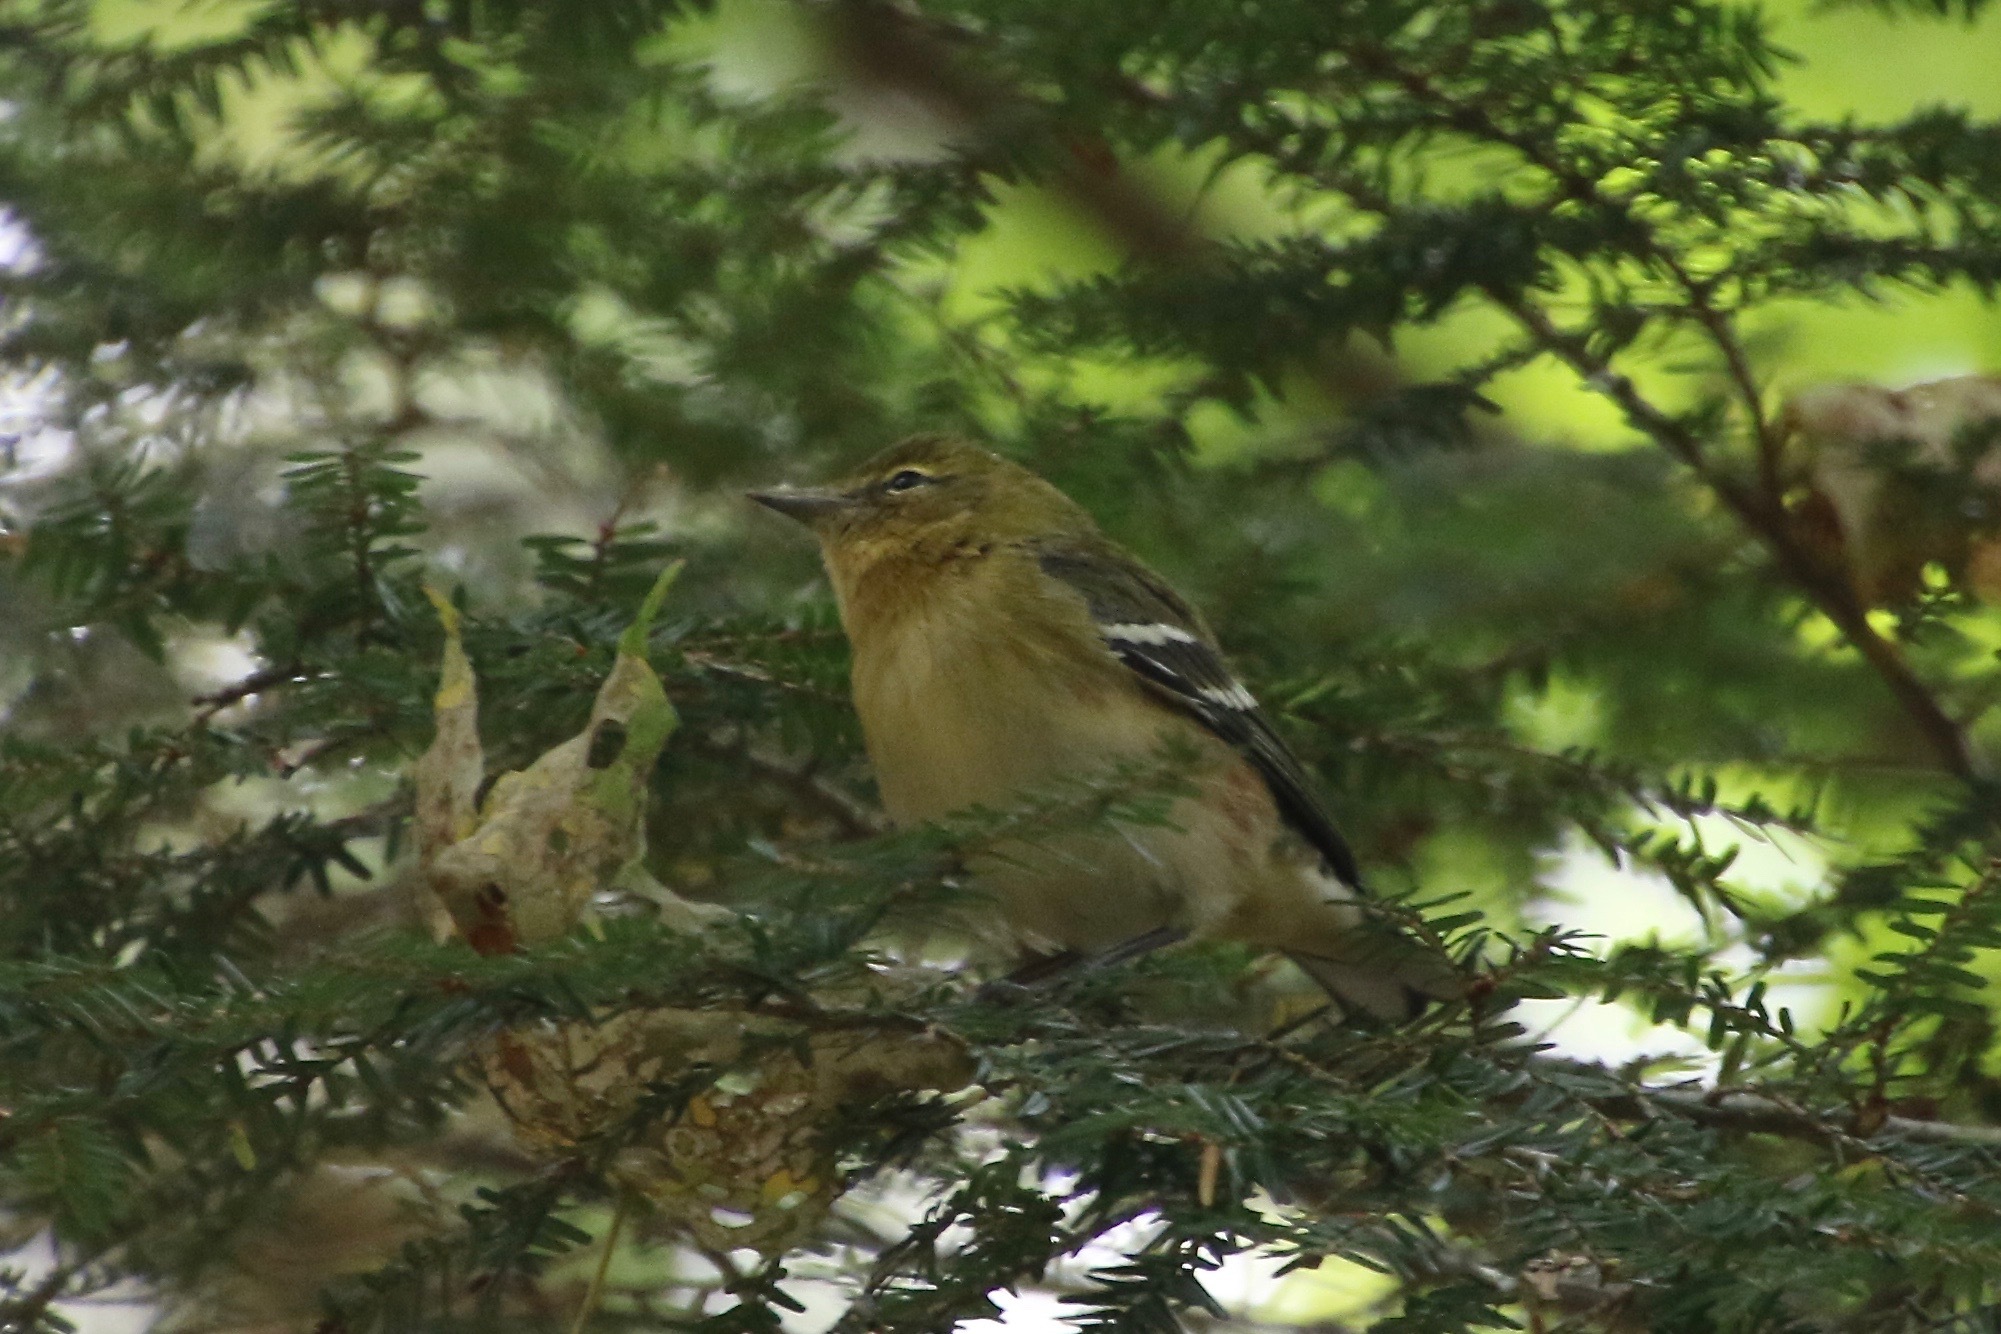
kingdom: Animalia
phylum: Chordata
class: Aves
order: Passeriformes
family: Parulidae
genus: Setophaga
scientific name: Setophaga castanea
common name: Bay-breasted warbler
